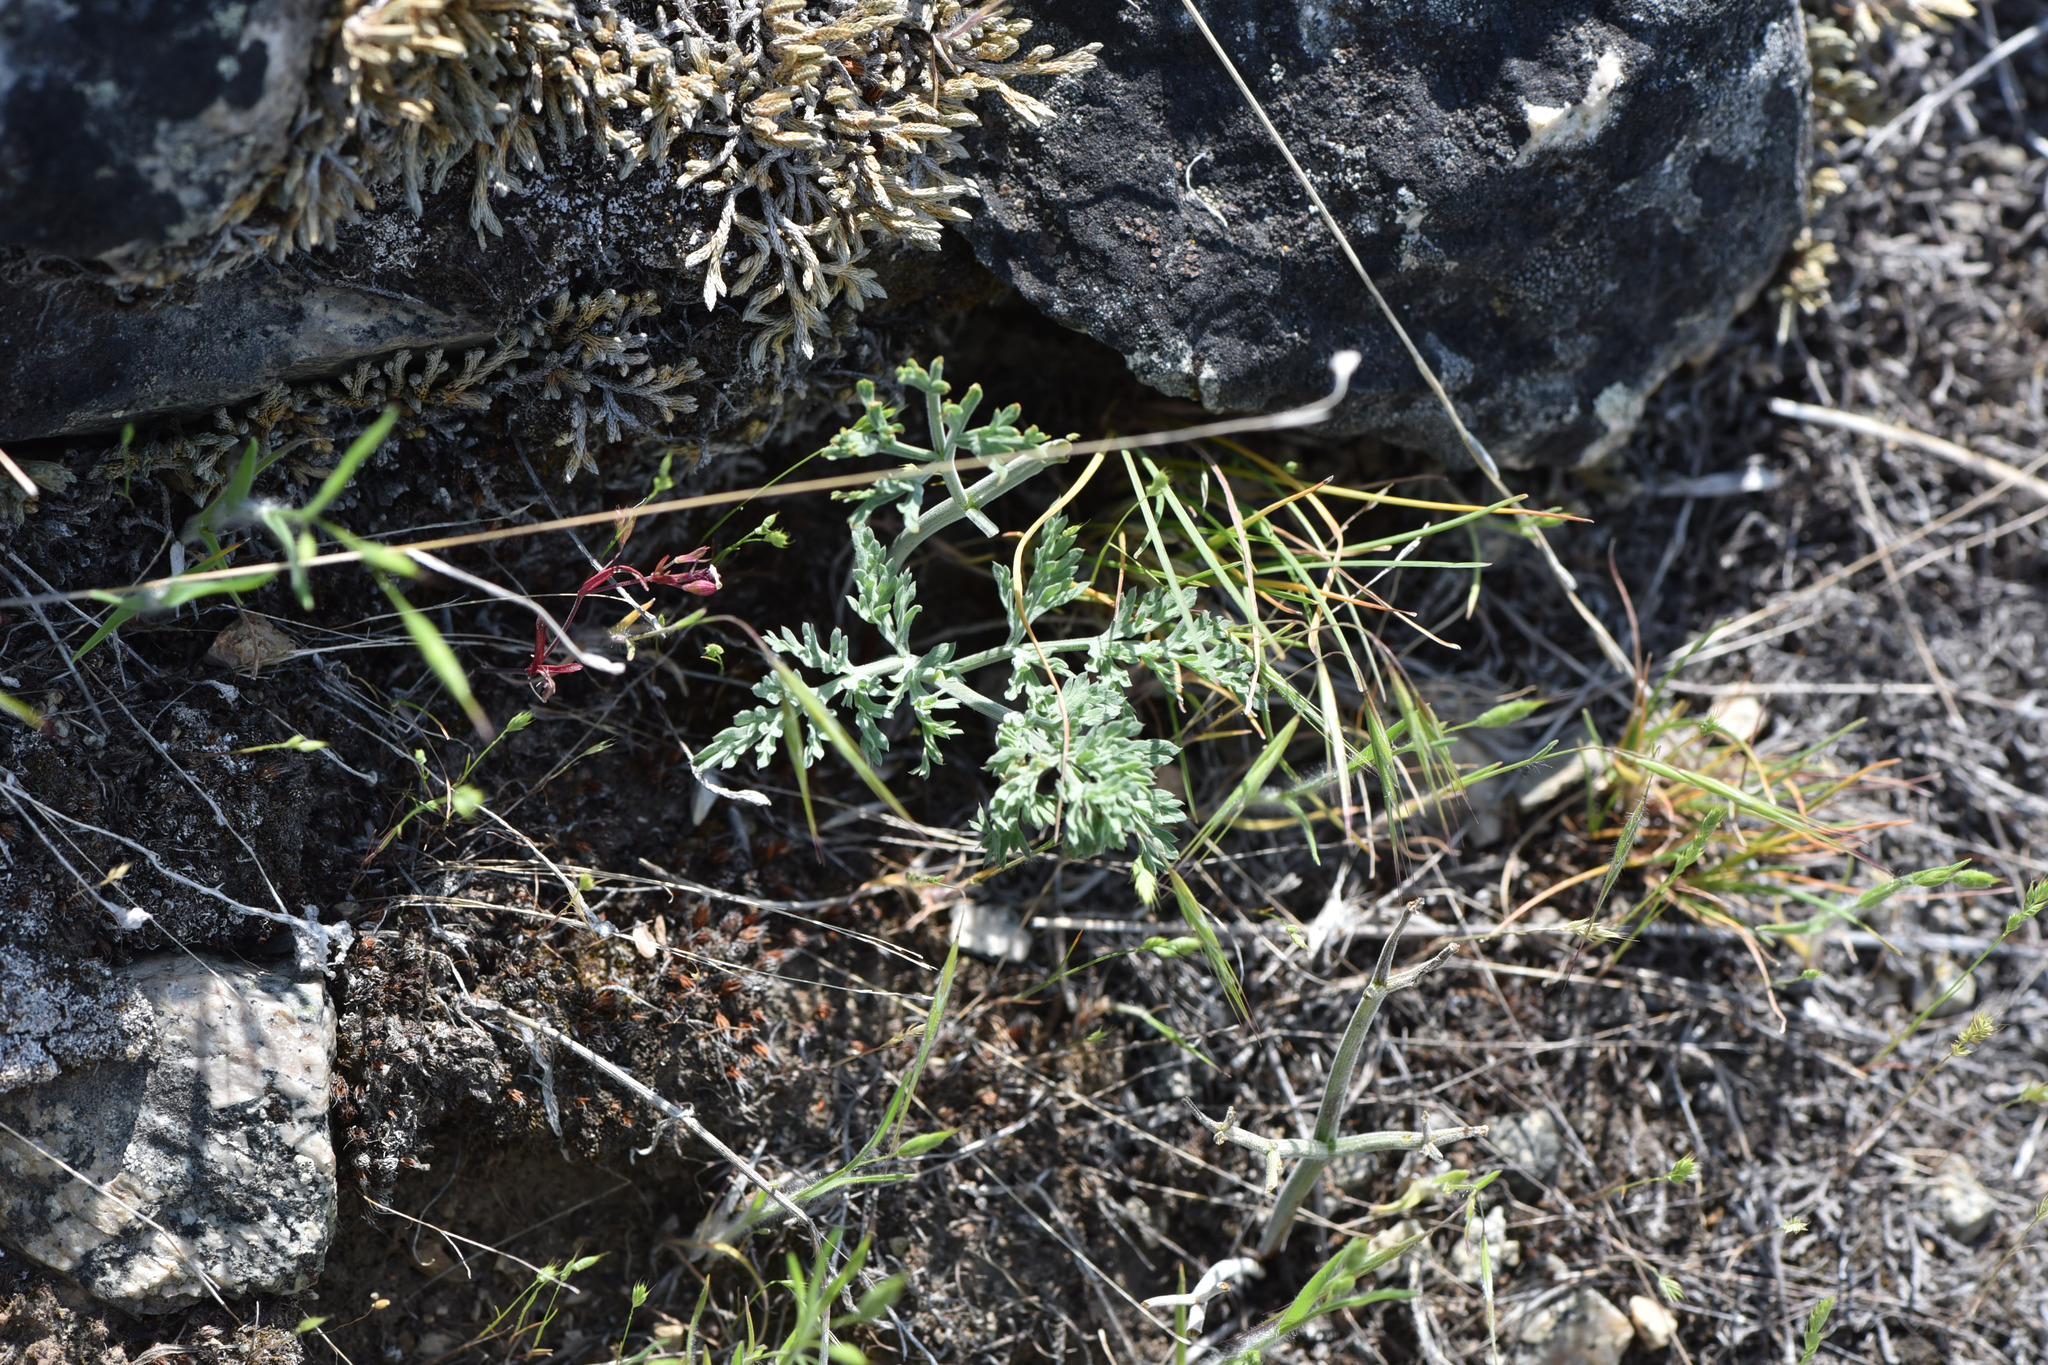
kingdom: Plantae
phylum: Tracheophyta
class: Magnoliopsida
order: Apiales
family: Apiaceae
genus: Lomatium
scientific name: Lomatium macrocarpum
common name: Big-seed biscuitroot
